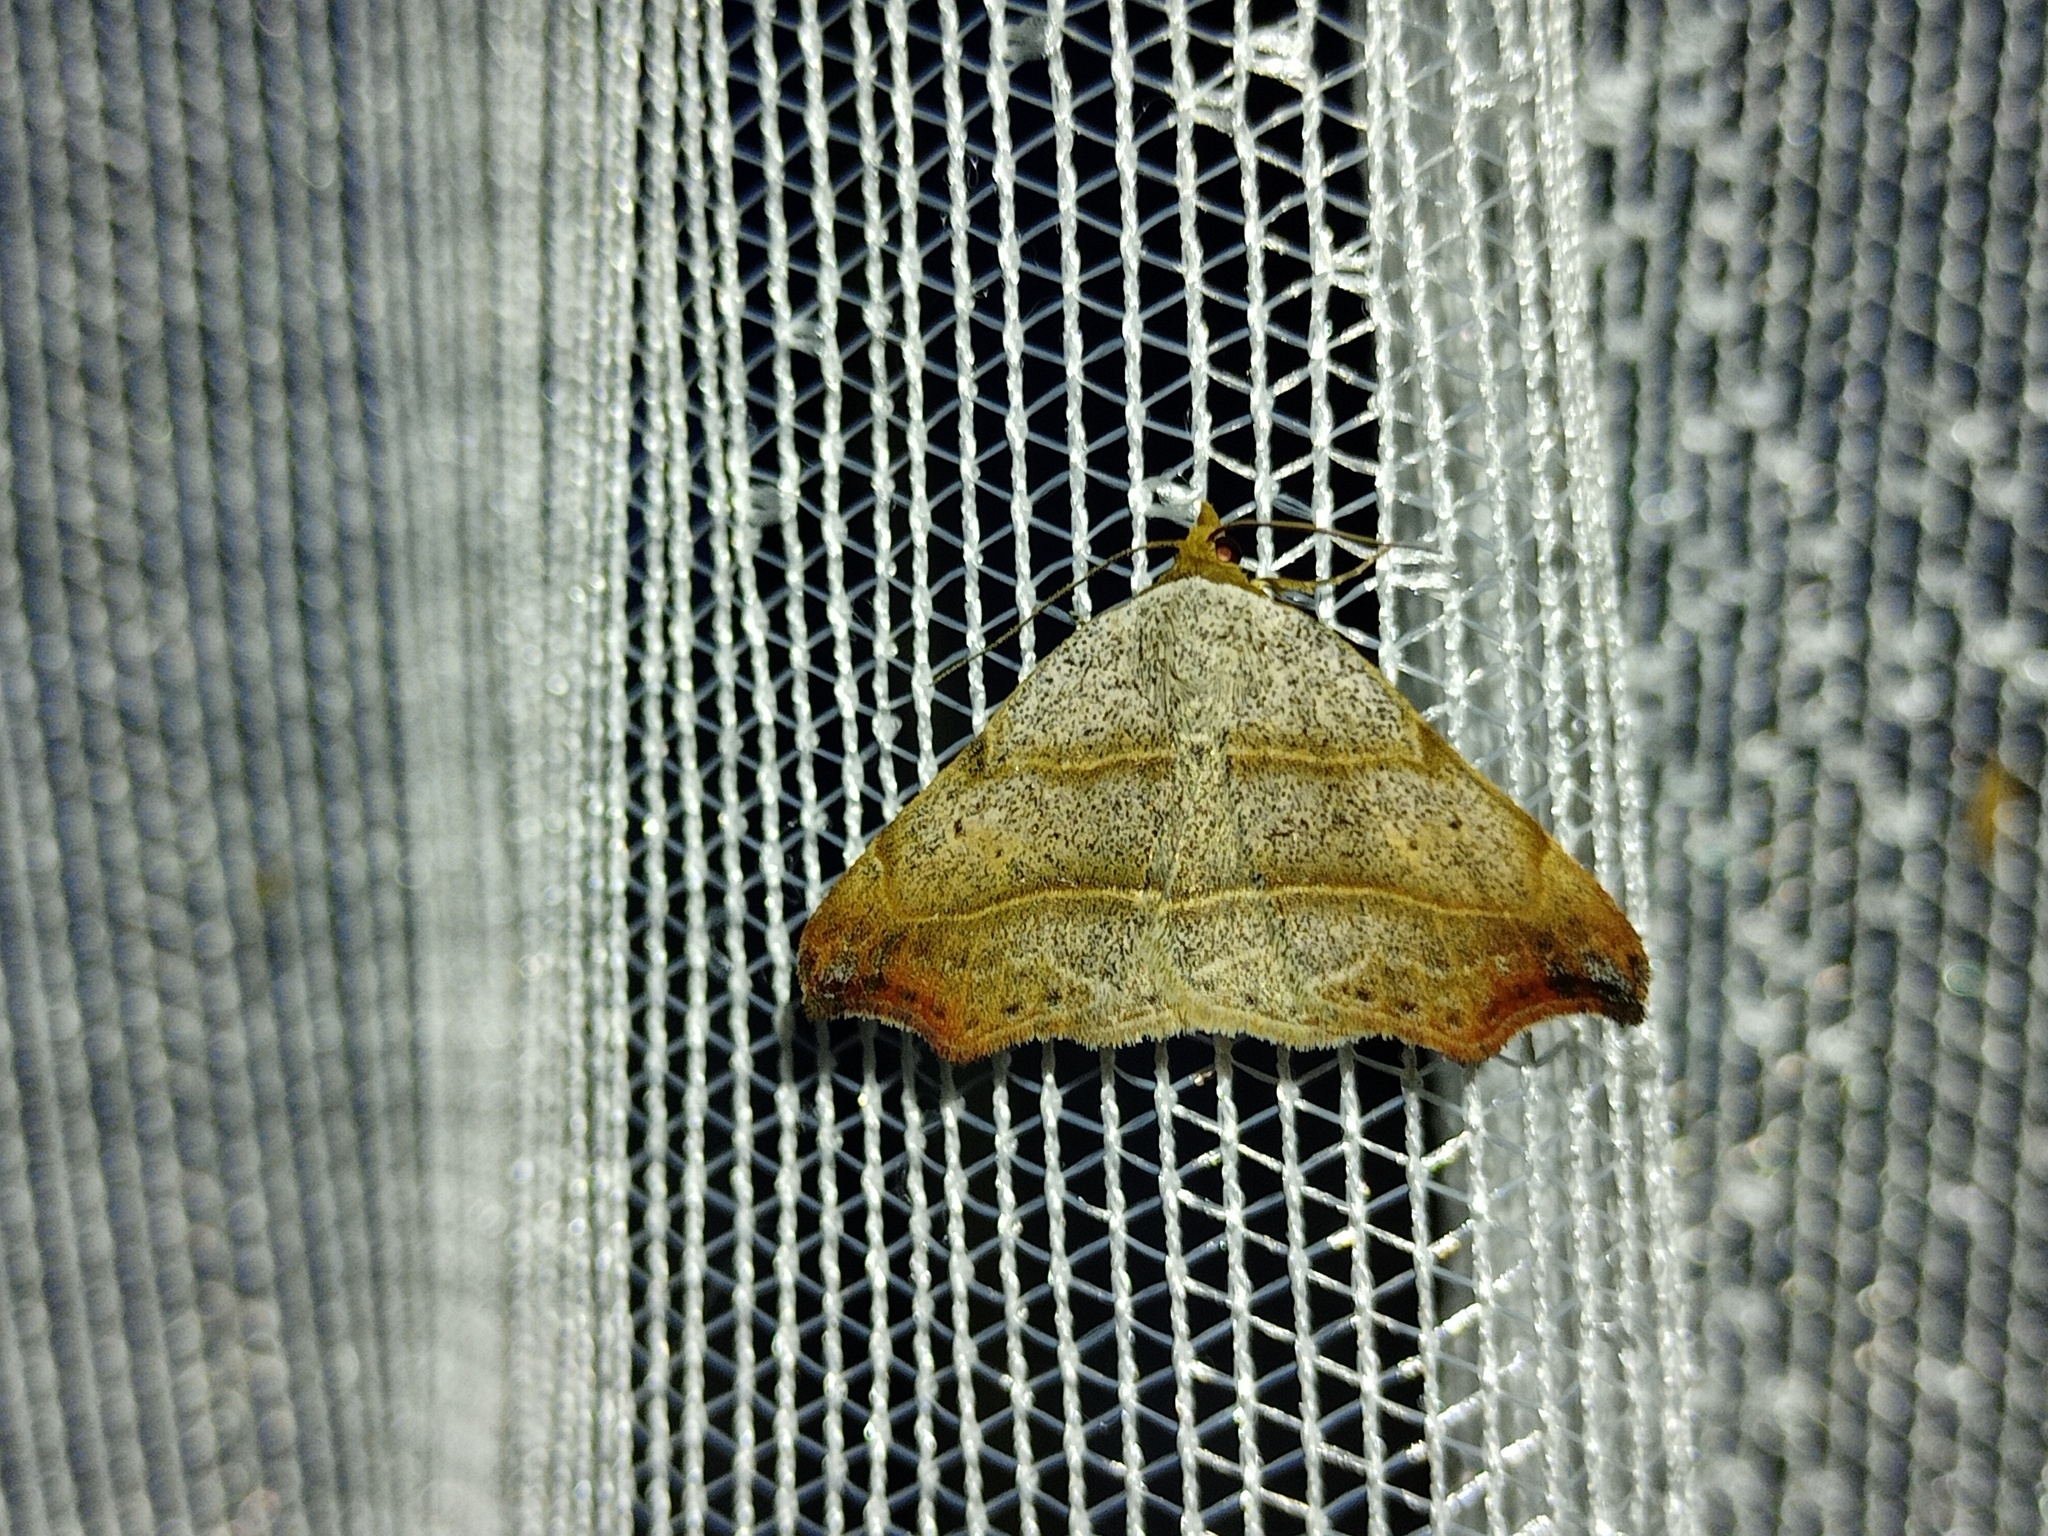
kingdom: Animalia
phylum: Arthropoda
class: Insecta
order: Lepidoptera
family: Erebidae
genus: Laspeyria
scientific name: Laspeyria flexula
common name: Beautiful hook-tip
